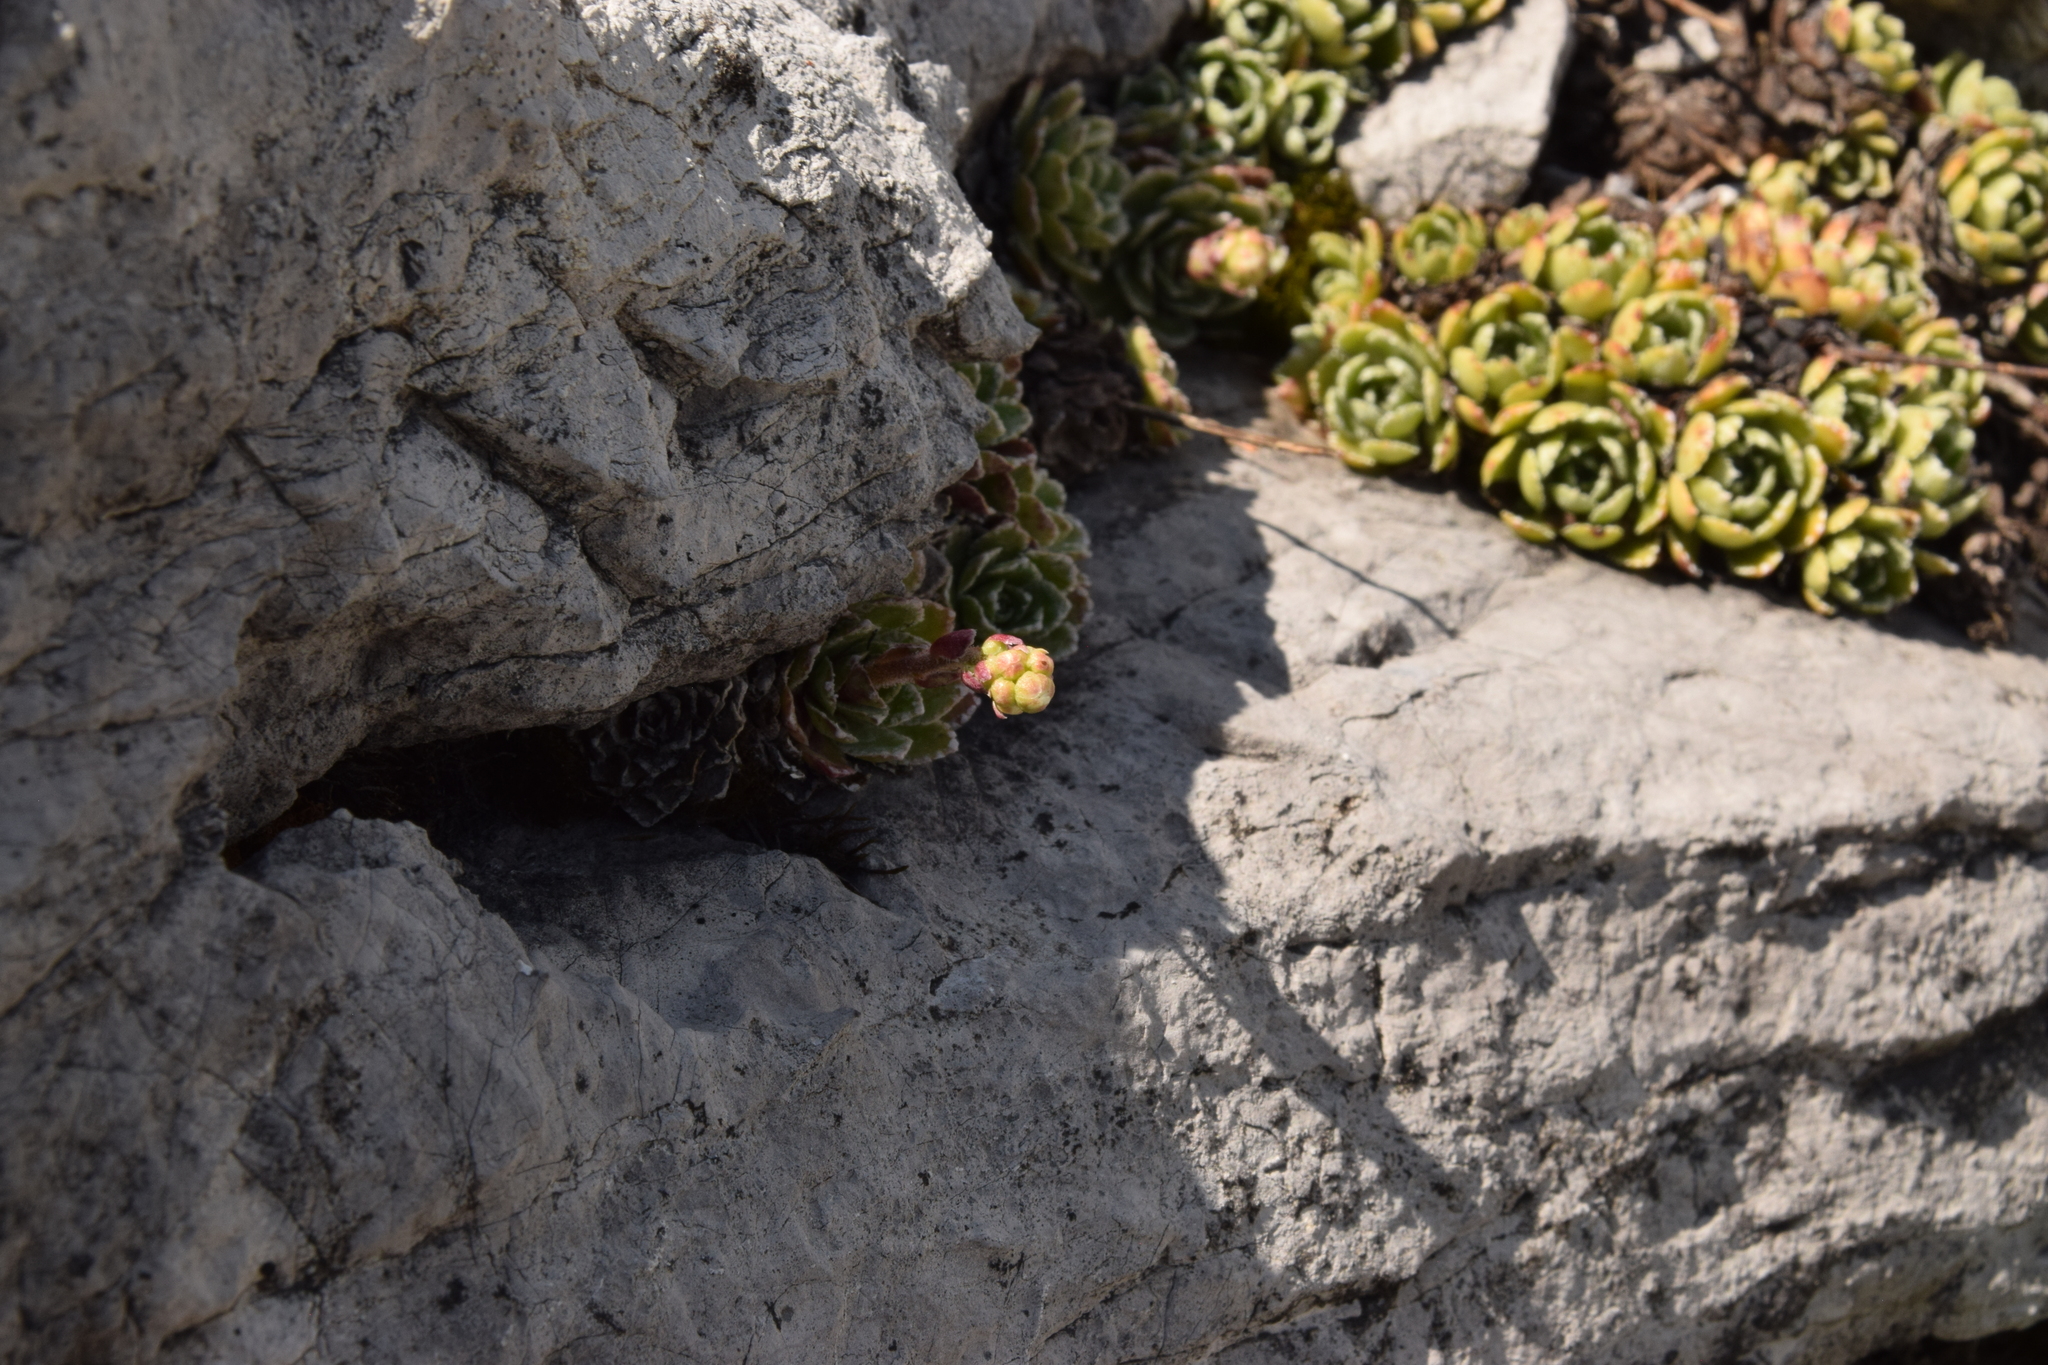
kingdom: Plantae
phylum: Tracheophyta
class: Magnoliopsida
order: Saxifragales
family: Saxifragaceae
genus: Saxifraga
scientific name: Saxifraga paniculata
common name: Livelong saxifrage
